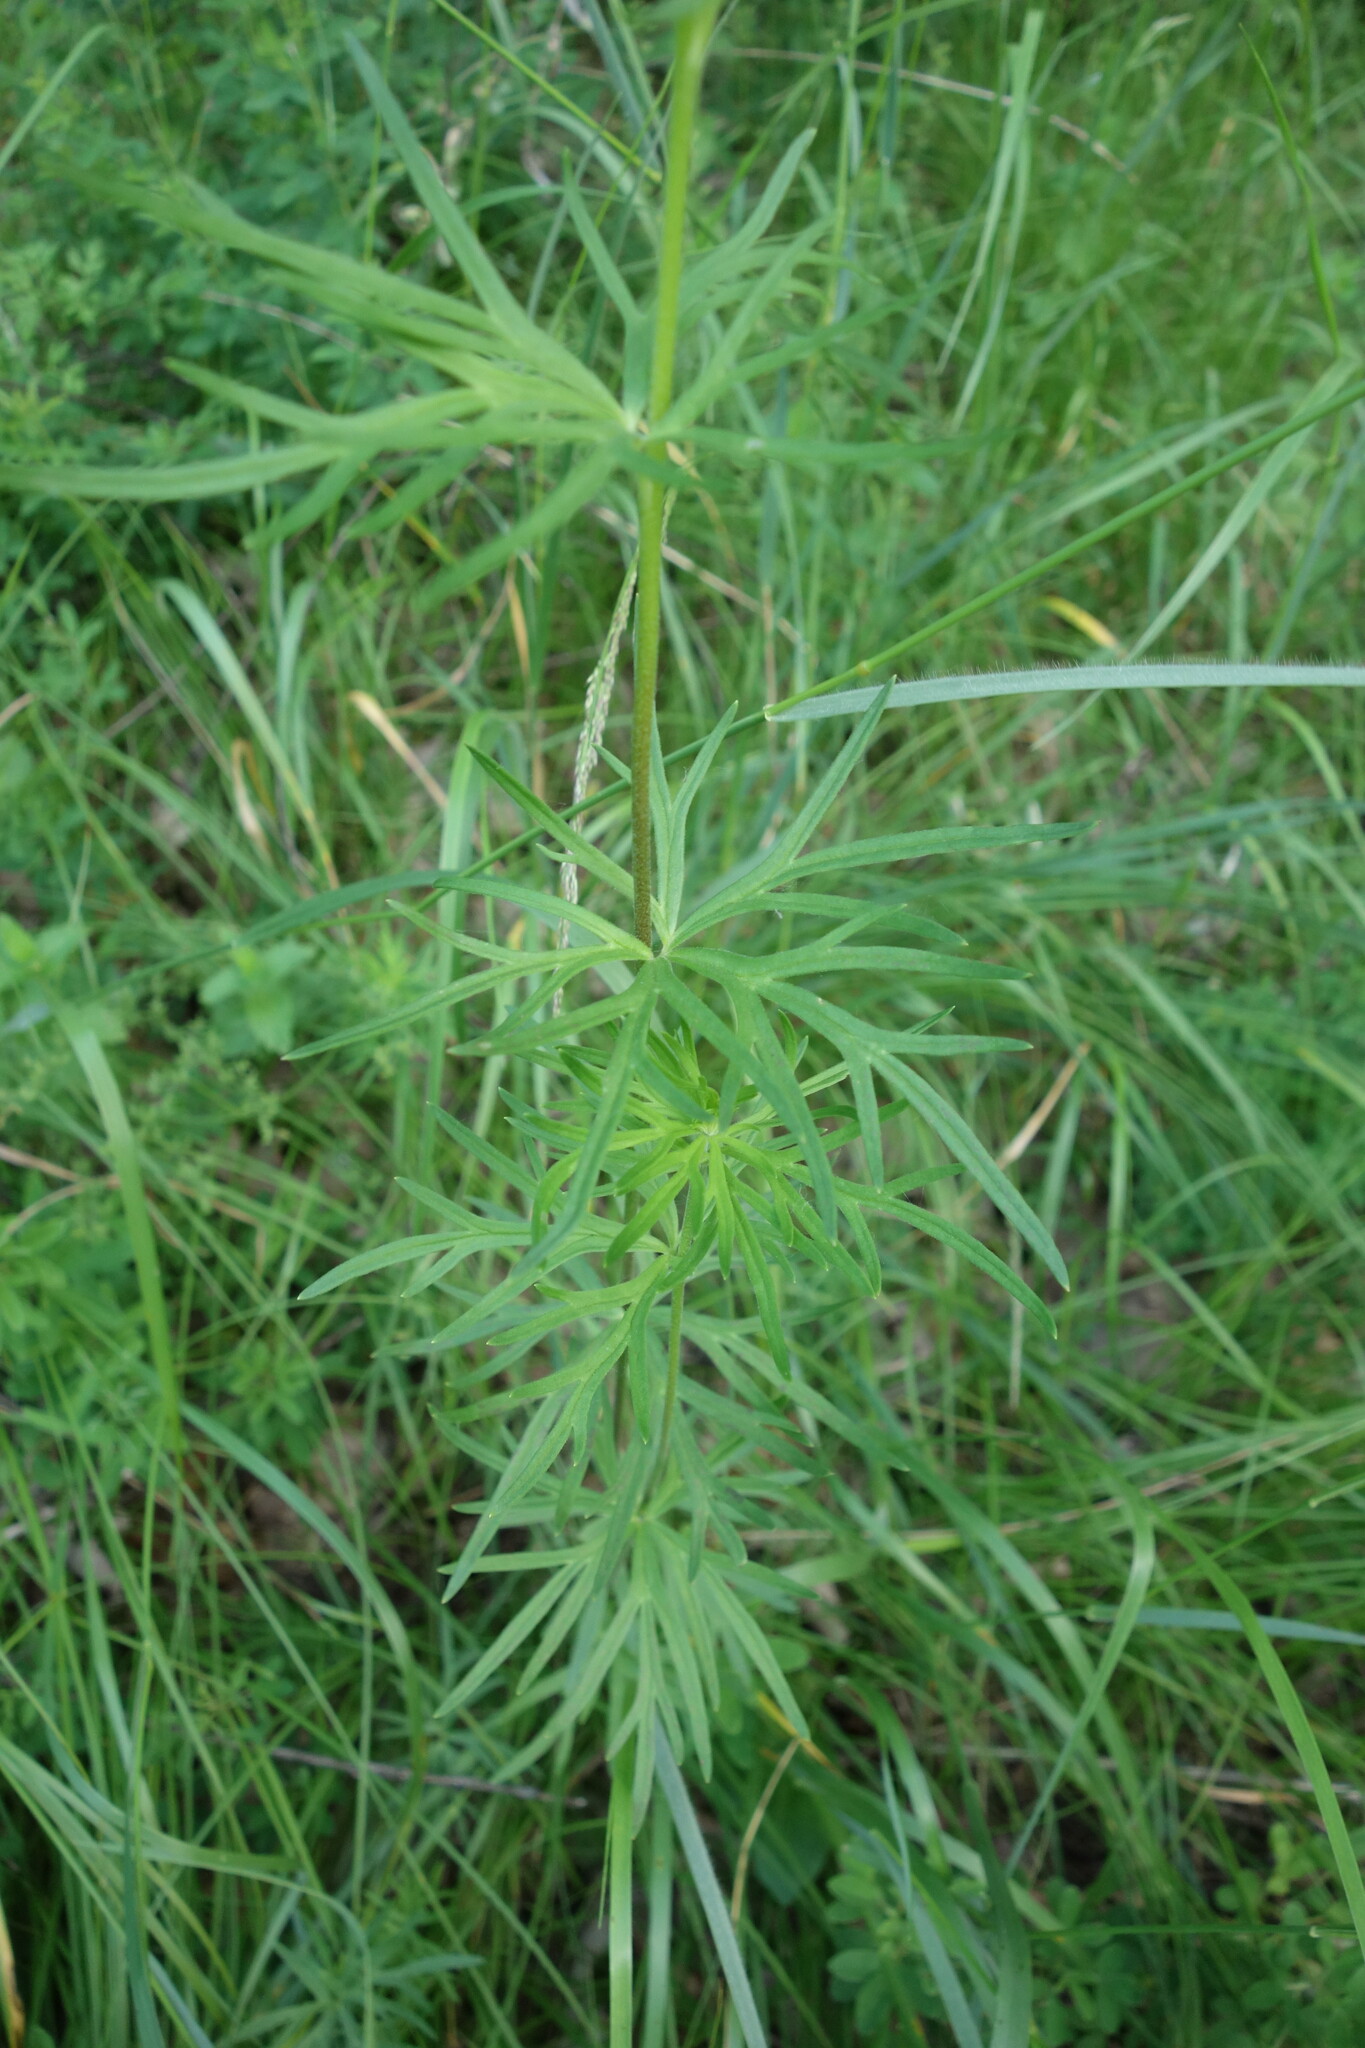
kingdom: Plantae
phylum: Tracheophyta
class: Magnoliopsida
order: Ranunculales
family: Ranunculaceae
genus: Aconitum
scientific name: Aconitum anthora
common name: Yellow monkshood
